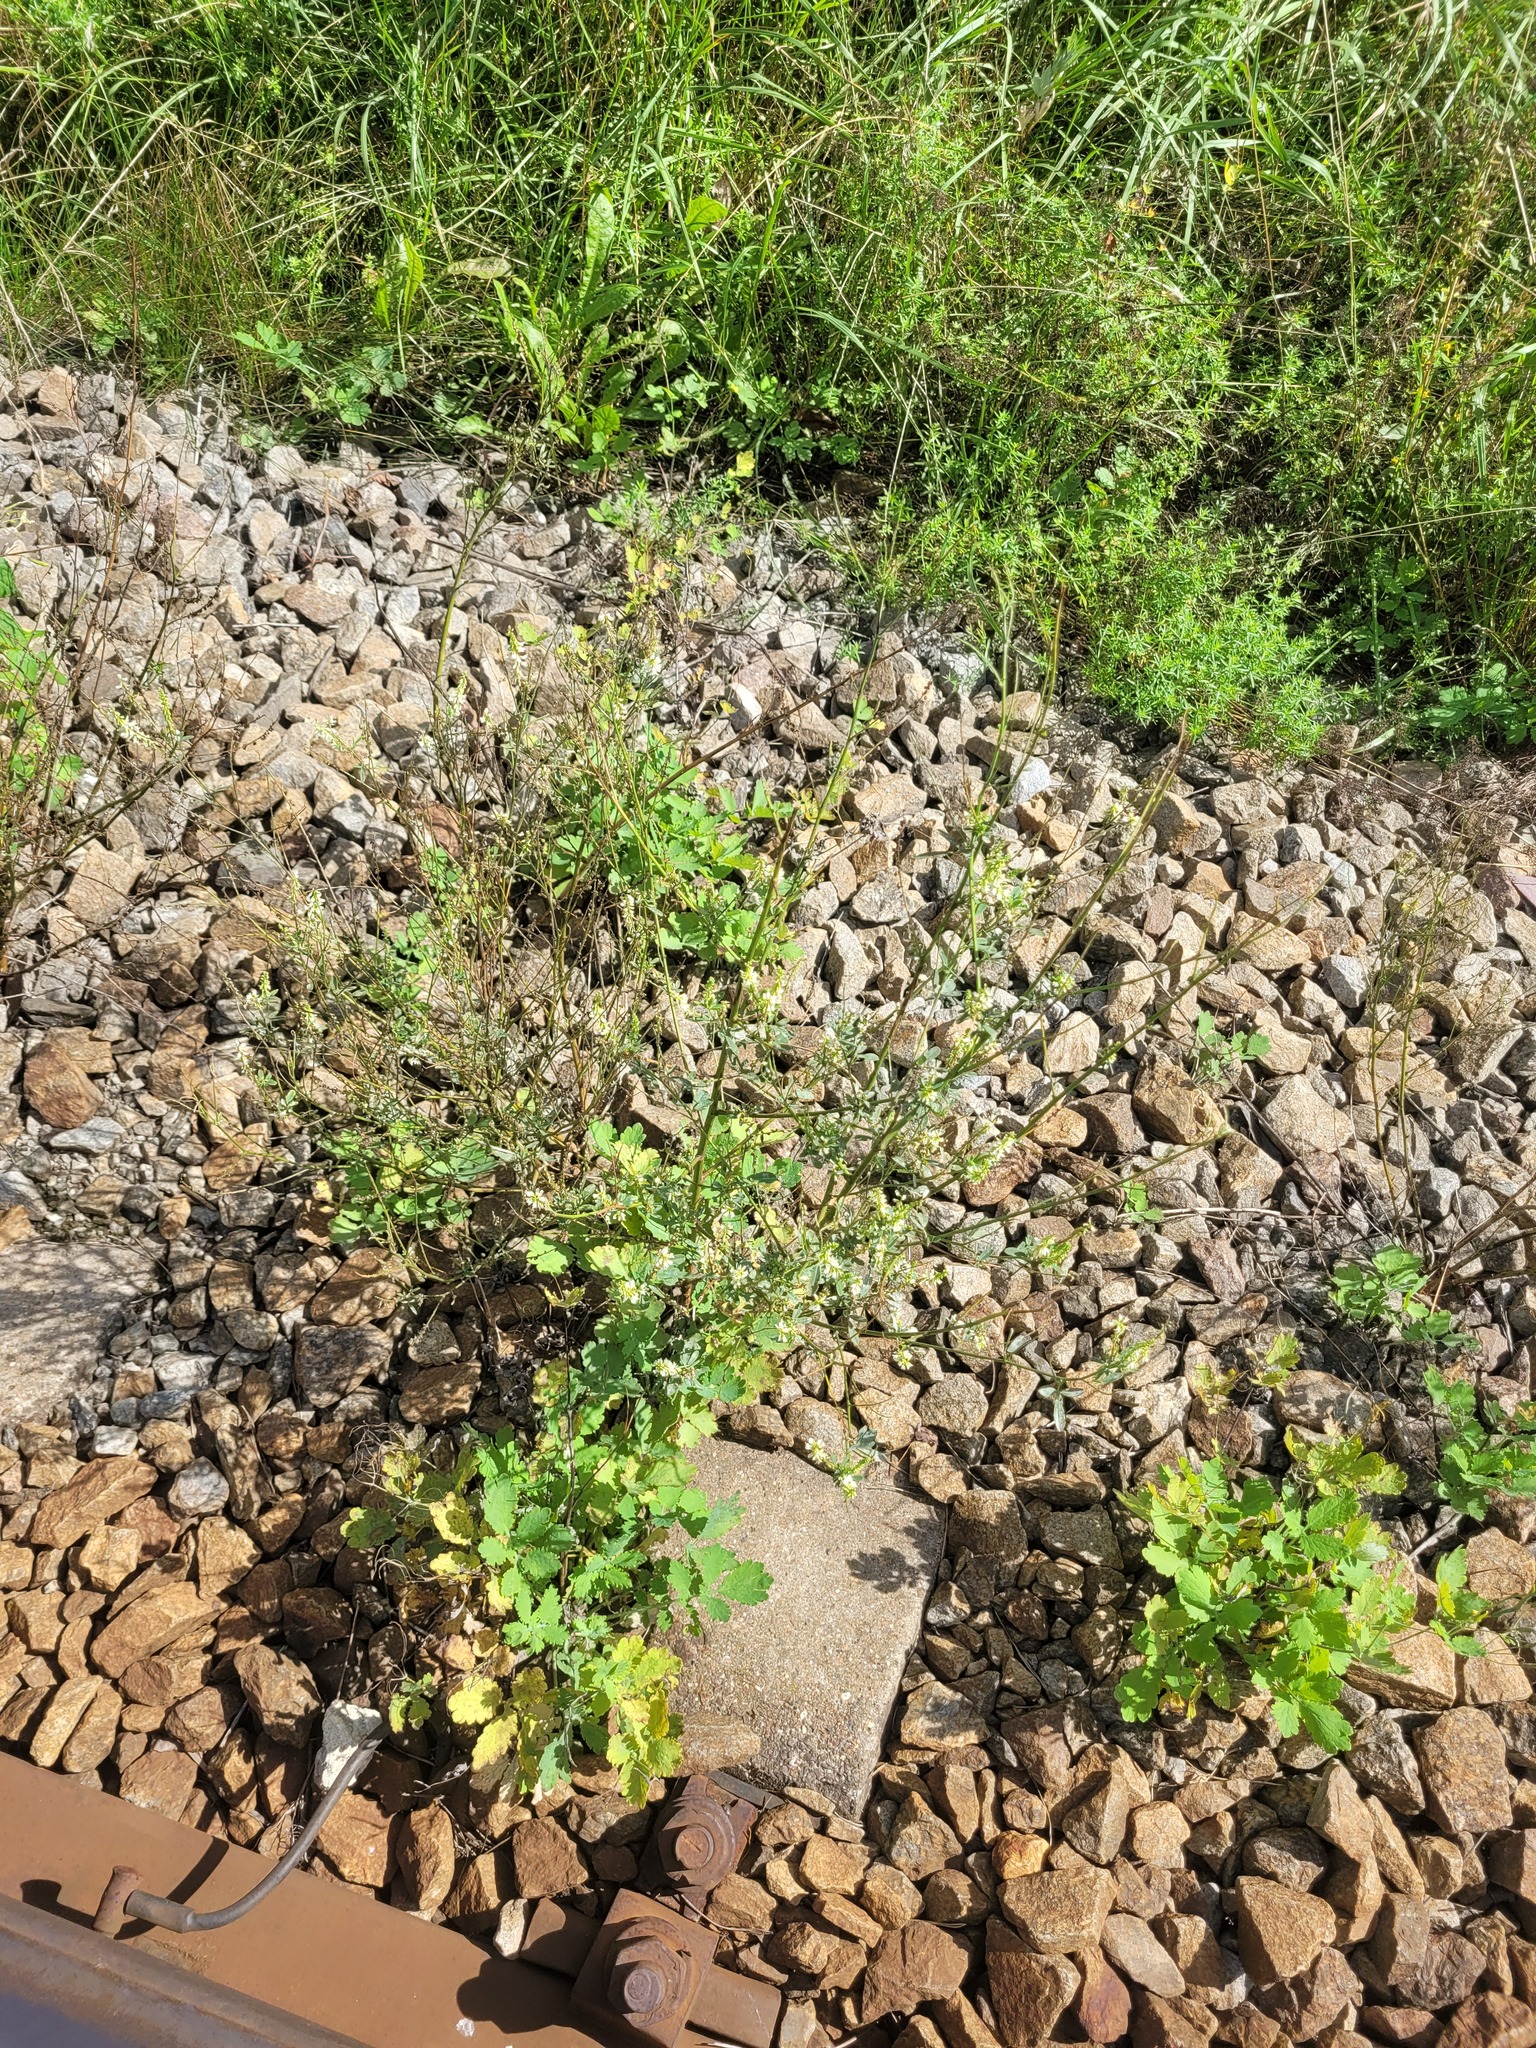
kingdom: Plantae
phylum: Tracheophyta
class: Magnoliopsida
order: Fabales
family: Fabaceae
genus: Melilotus
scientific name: Melilotus albus
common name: White melilot
